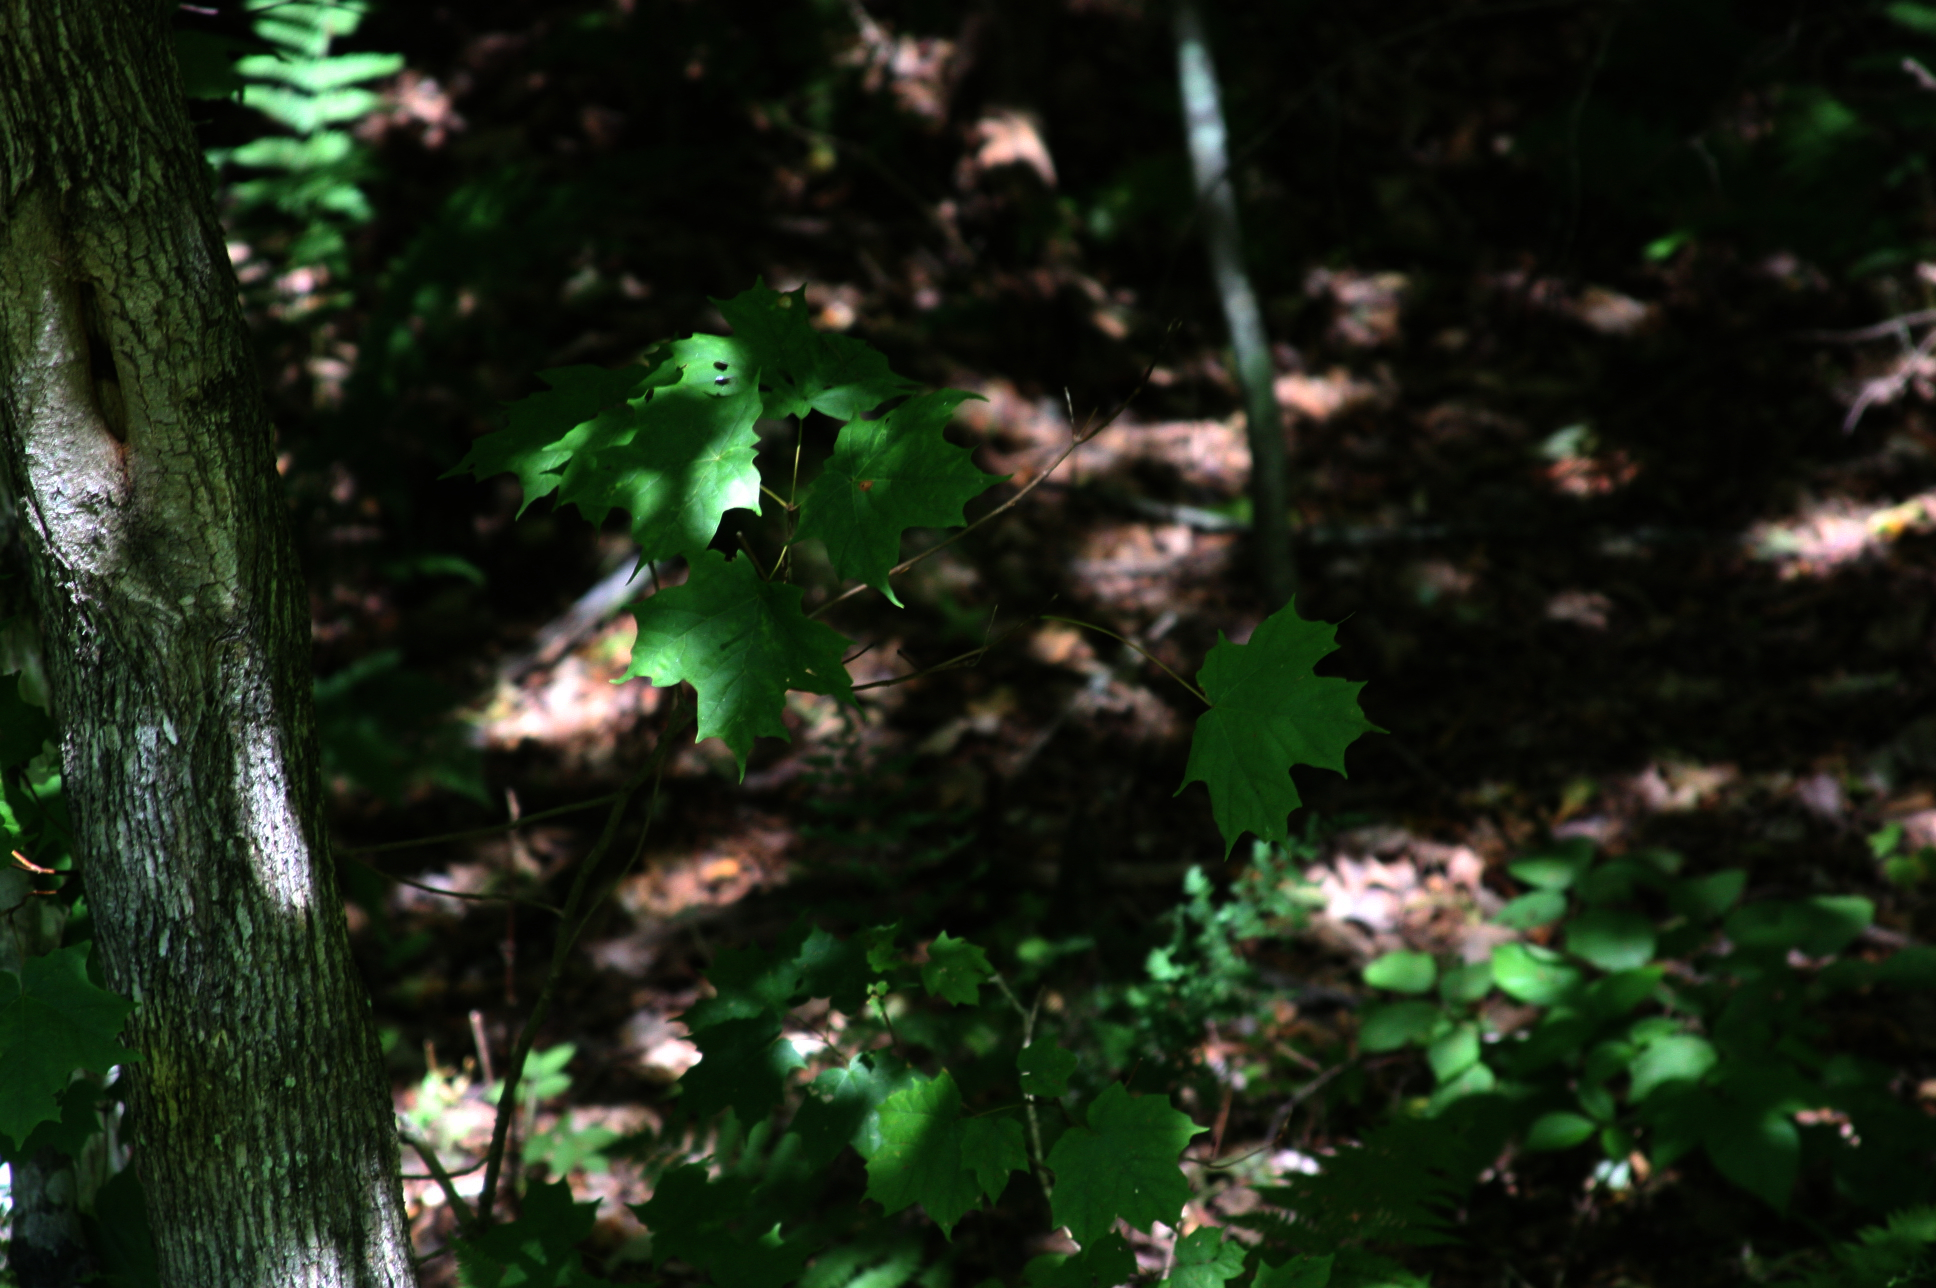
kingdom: Plantae
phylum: Tracheophyta
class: Magnoliopsida
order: Sapindales
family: Sapindaceae
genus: Acer
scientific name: Acer saccharum
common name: Sugar maple
